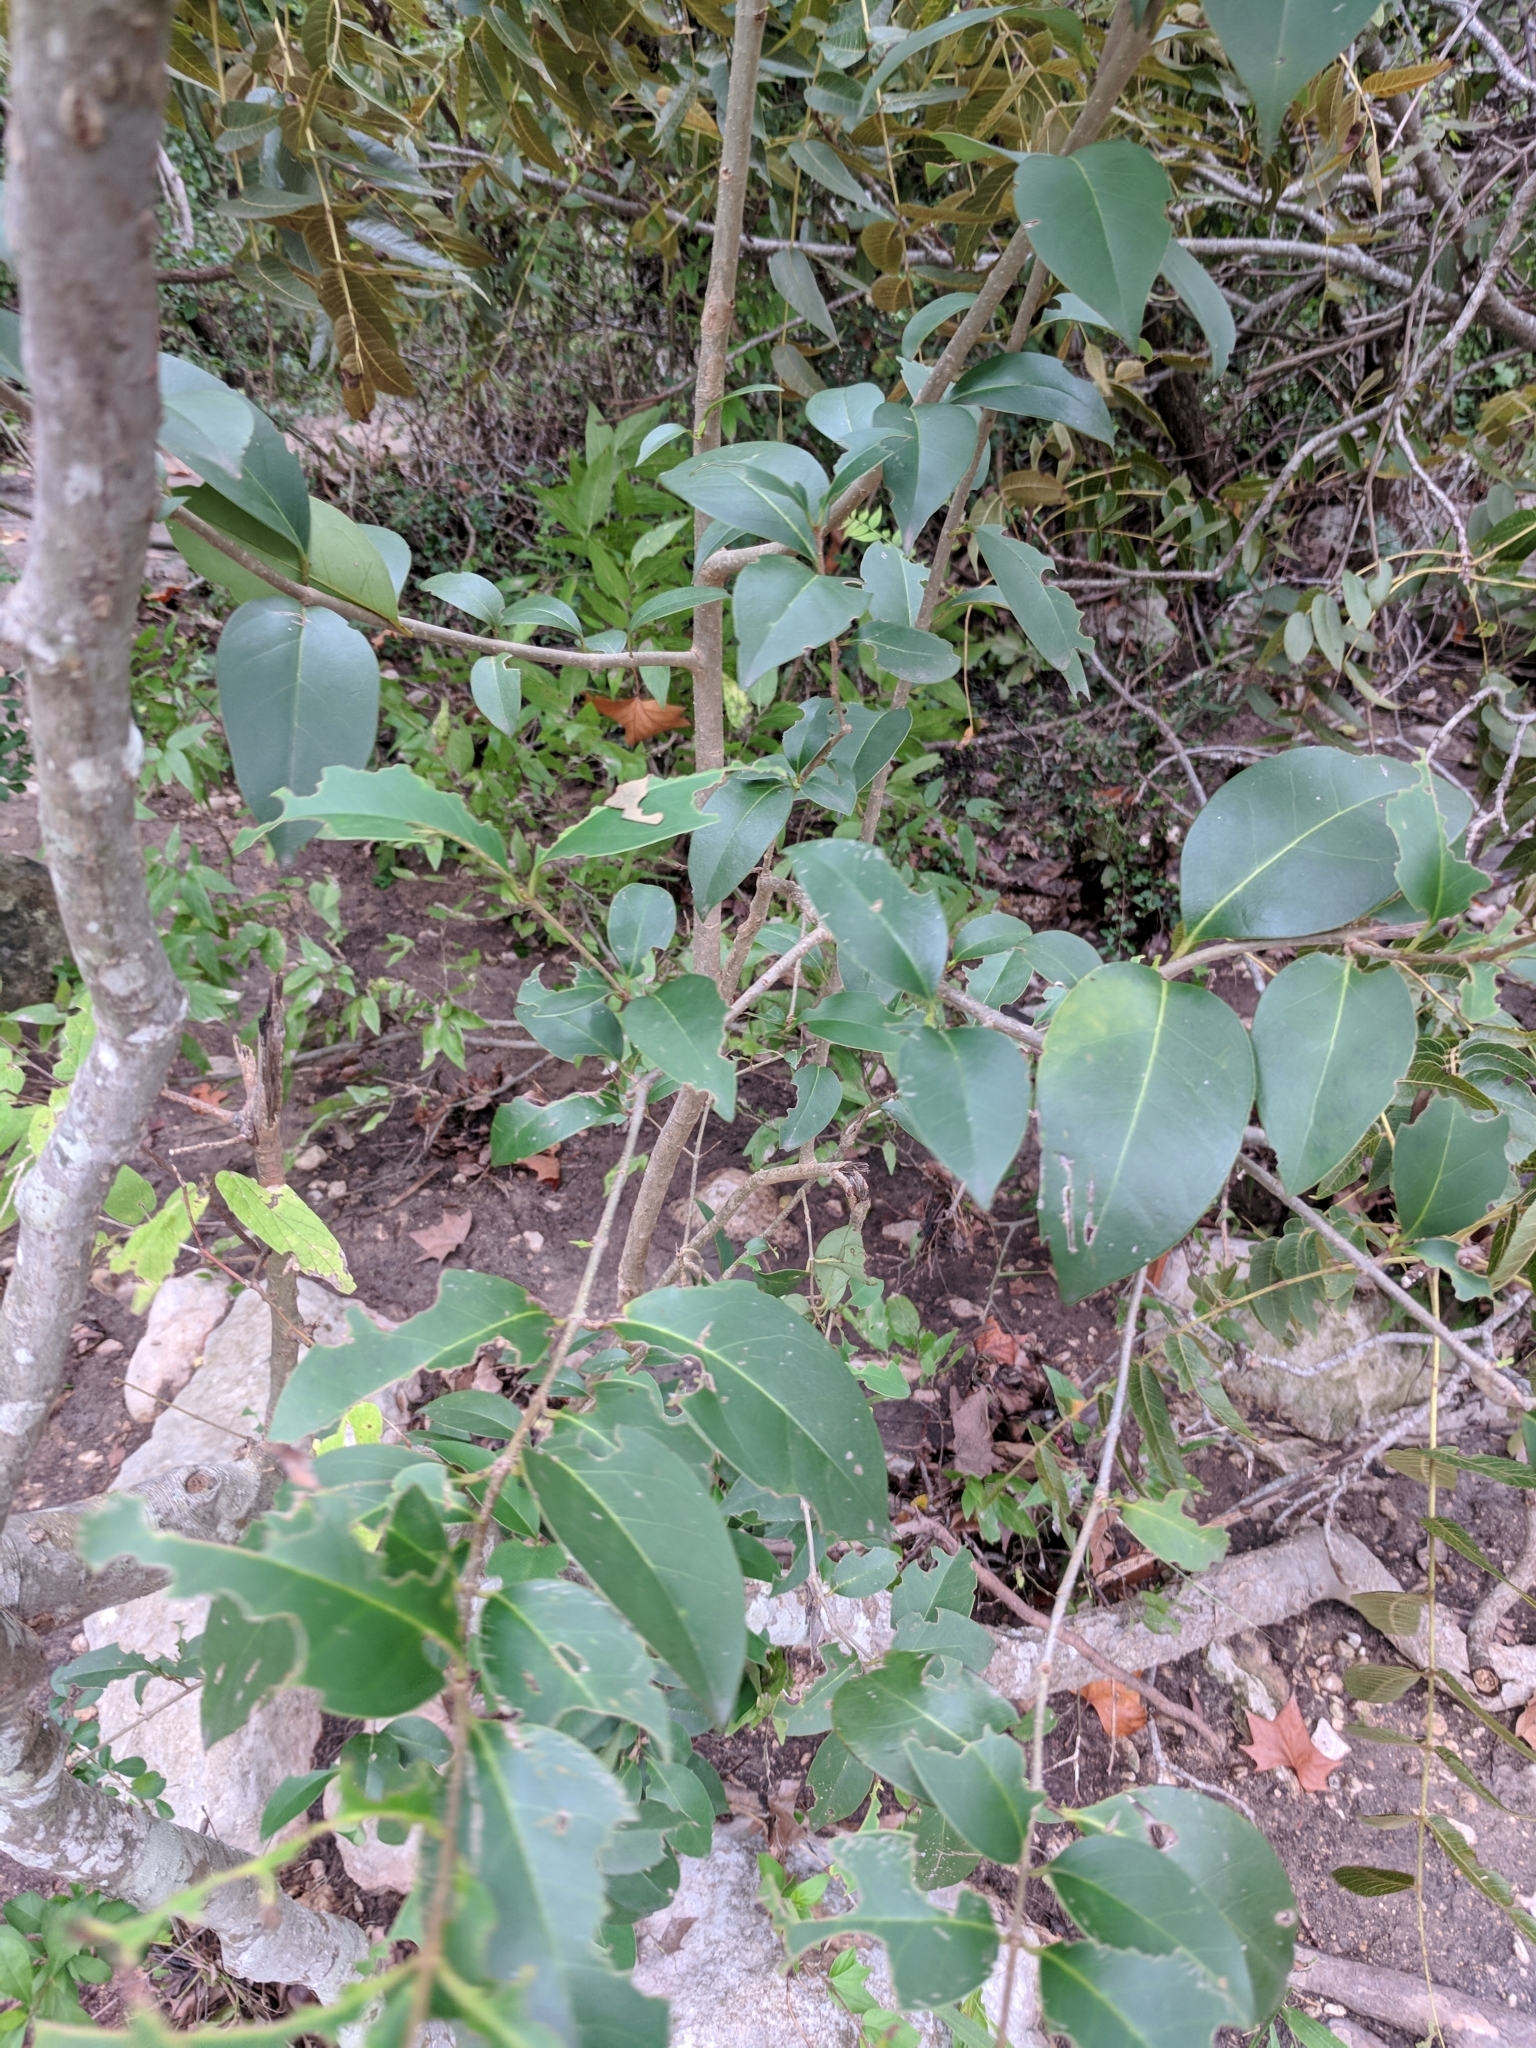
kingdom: Plantae
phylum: Tracheophyta
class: Magnoliopsida
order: Lamiales
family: Oleaceae
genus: Ligustrum
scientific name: Ligustrum lucidum
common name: Glossy privet
